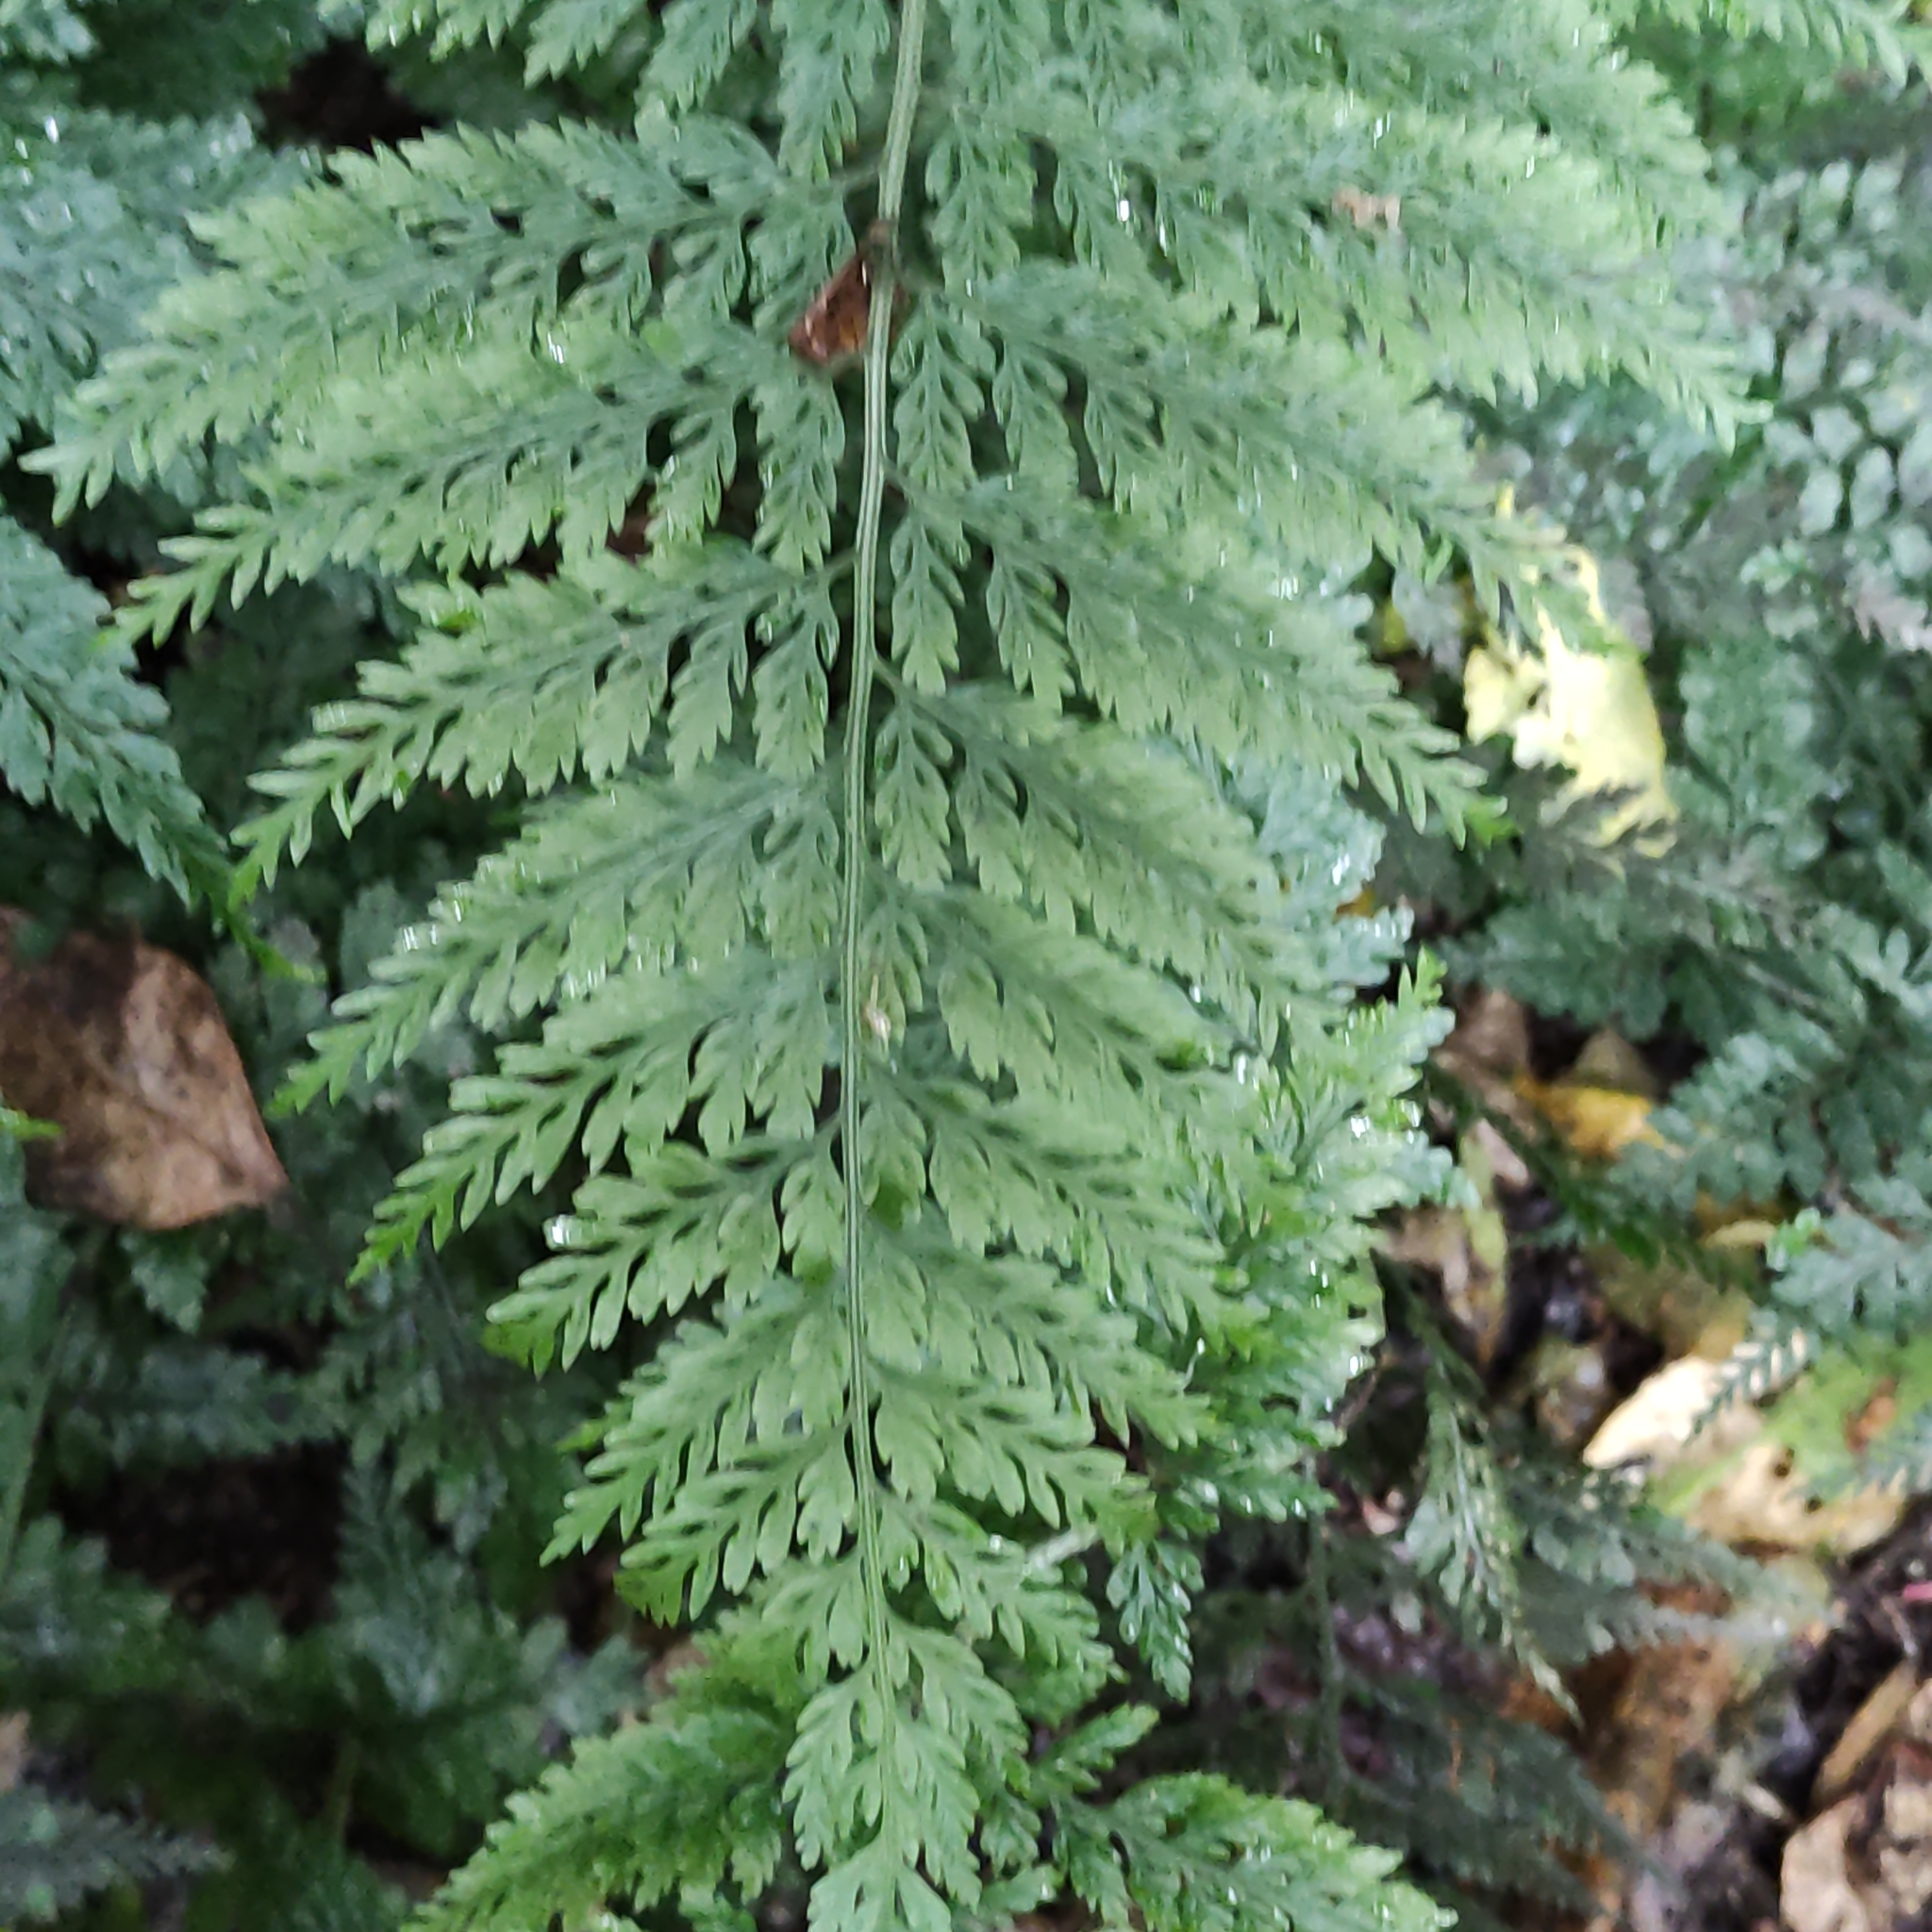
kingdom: Plantae
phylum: Tracheophyta
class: Polypodiopsida
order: Polypodiales
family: Aspleniaceae
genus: Asplenium
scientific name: Asplenium
